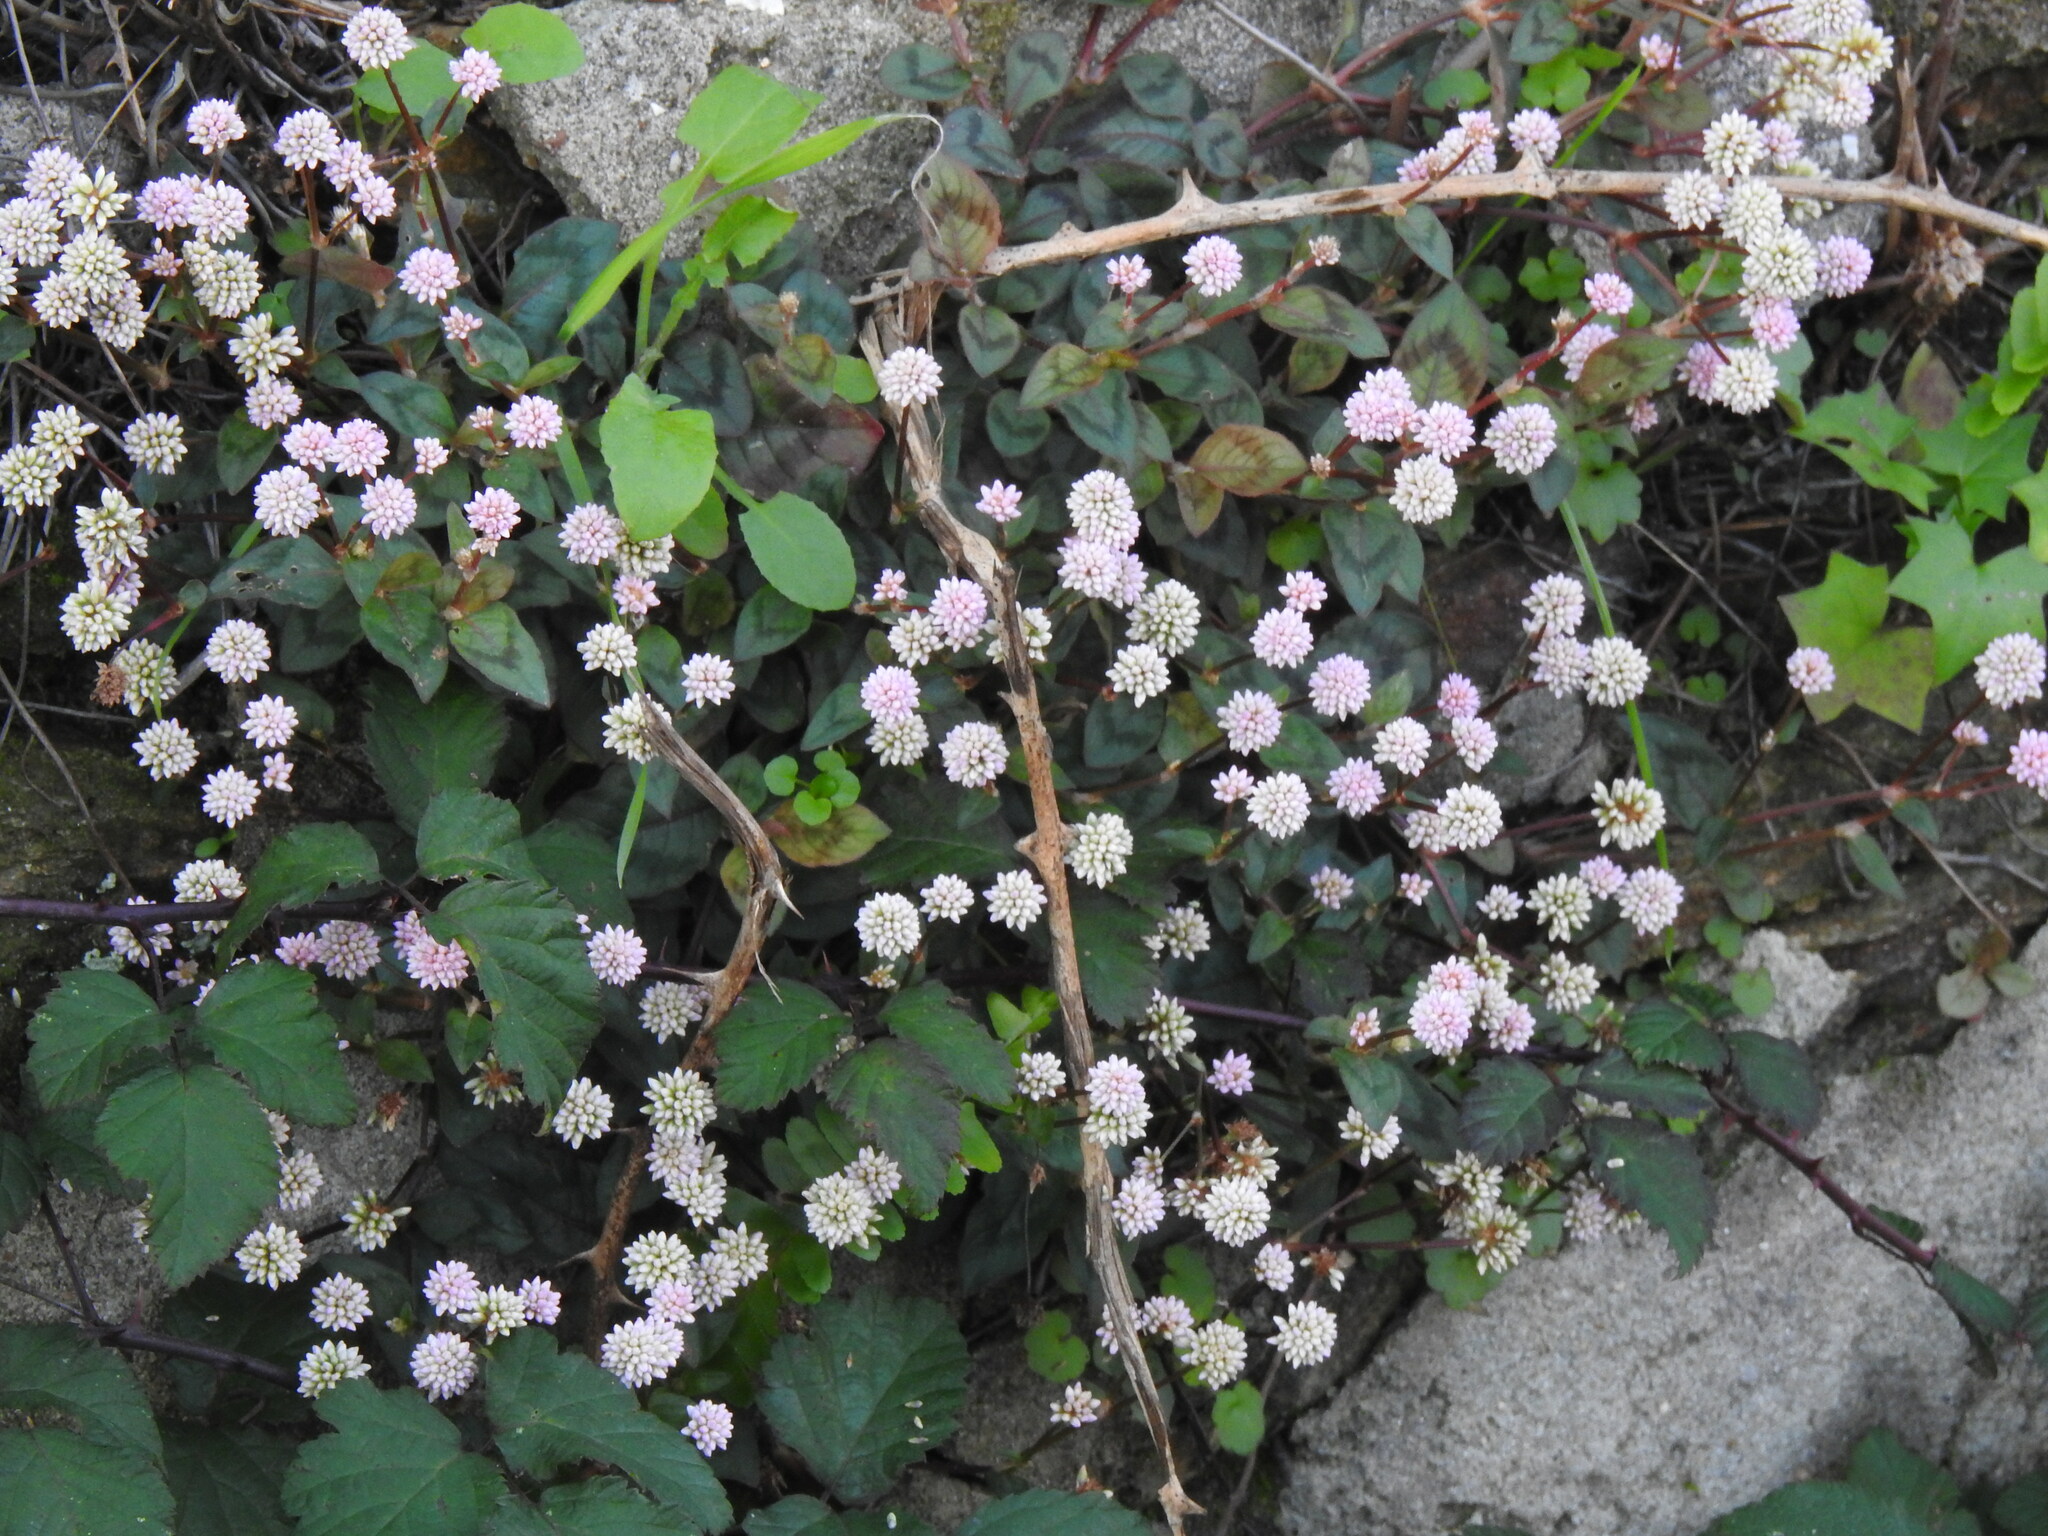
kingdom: Plantae
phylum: Tracheophyta
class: Magnoliopsida
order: Caryophyllales
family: Polygonaceae
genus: Persicaria
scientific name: Persicaria capitata
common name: Pinkhead smartweed
